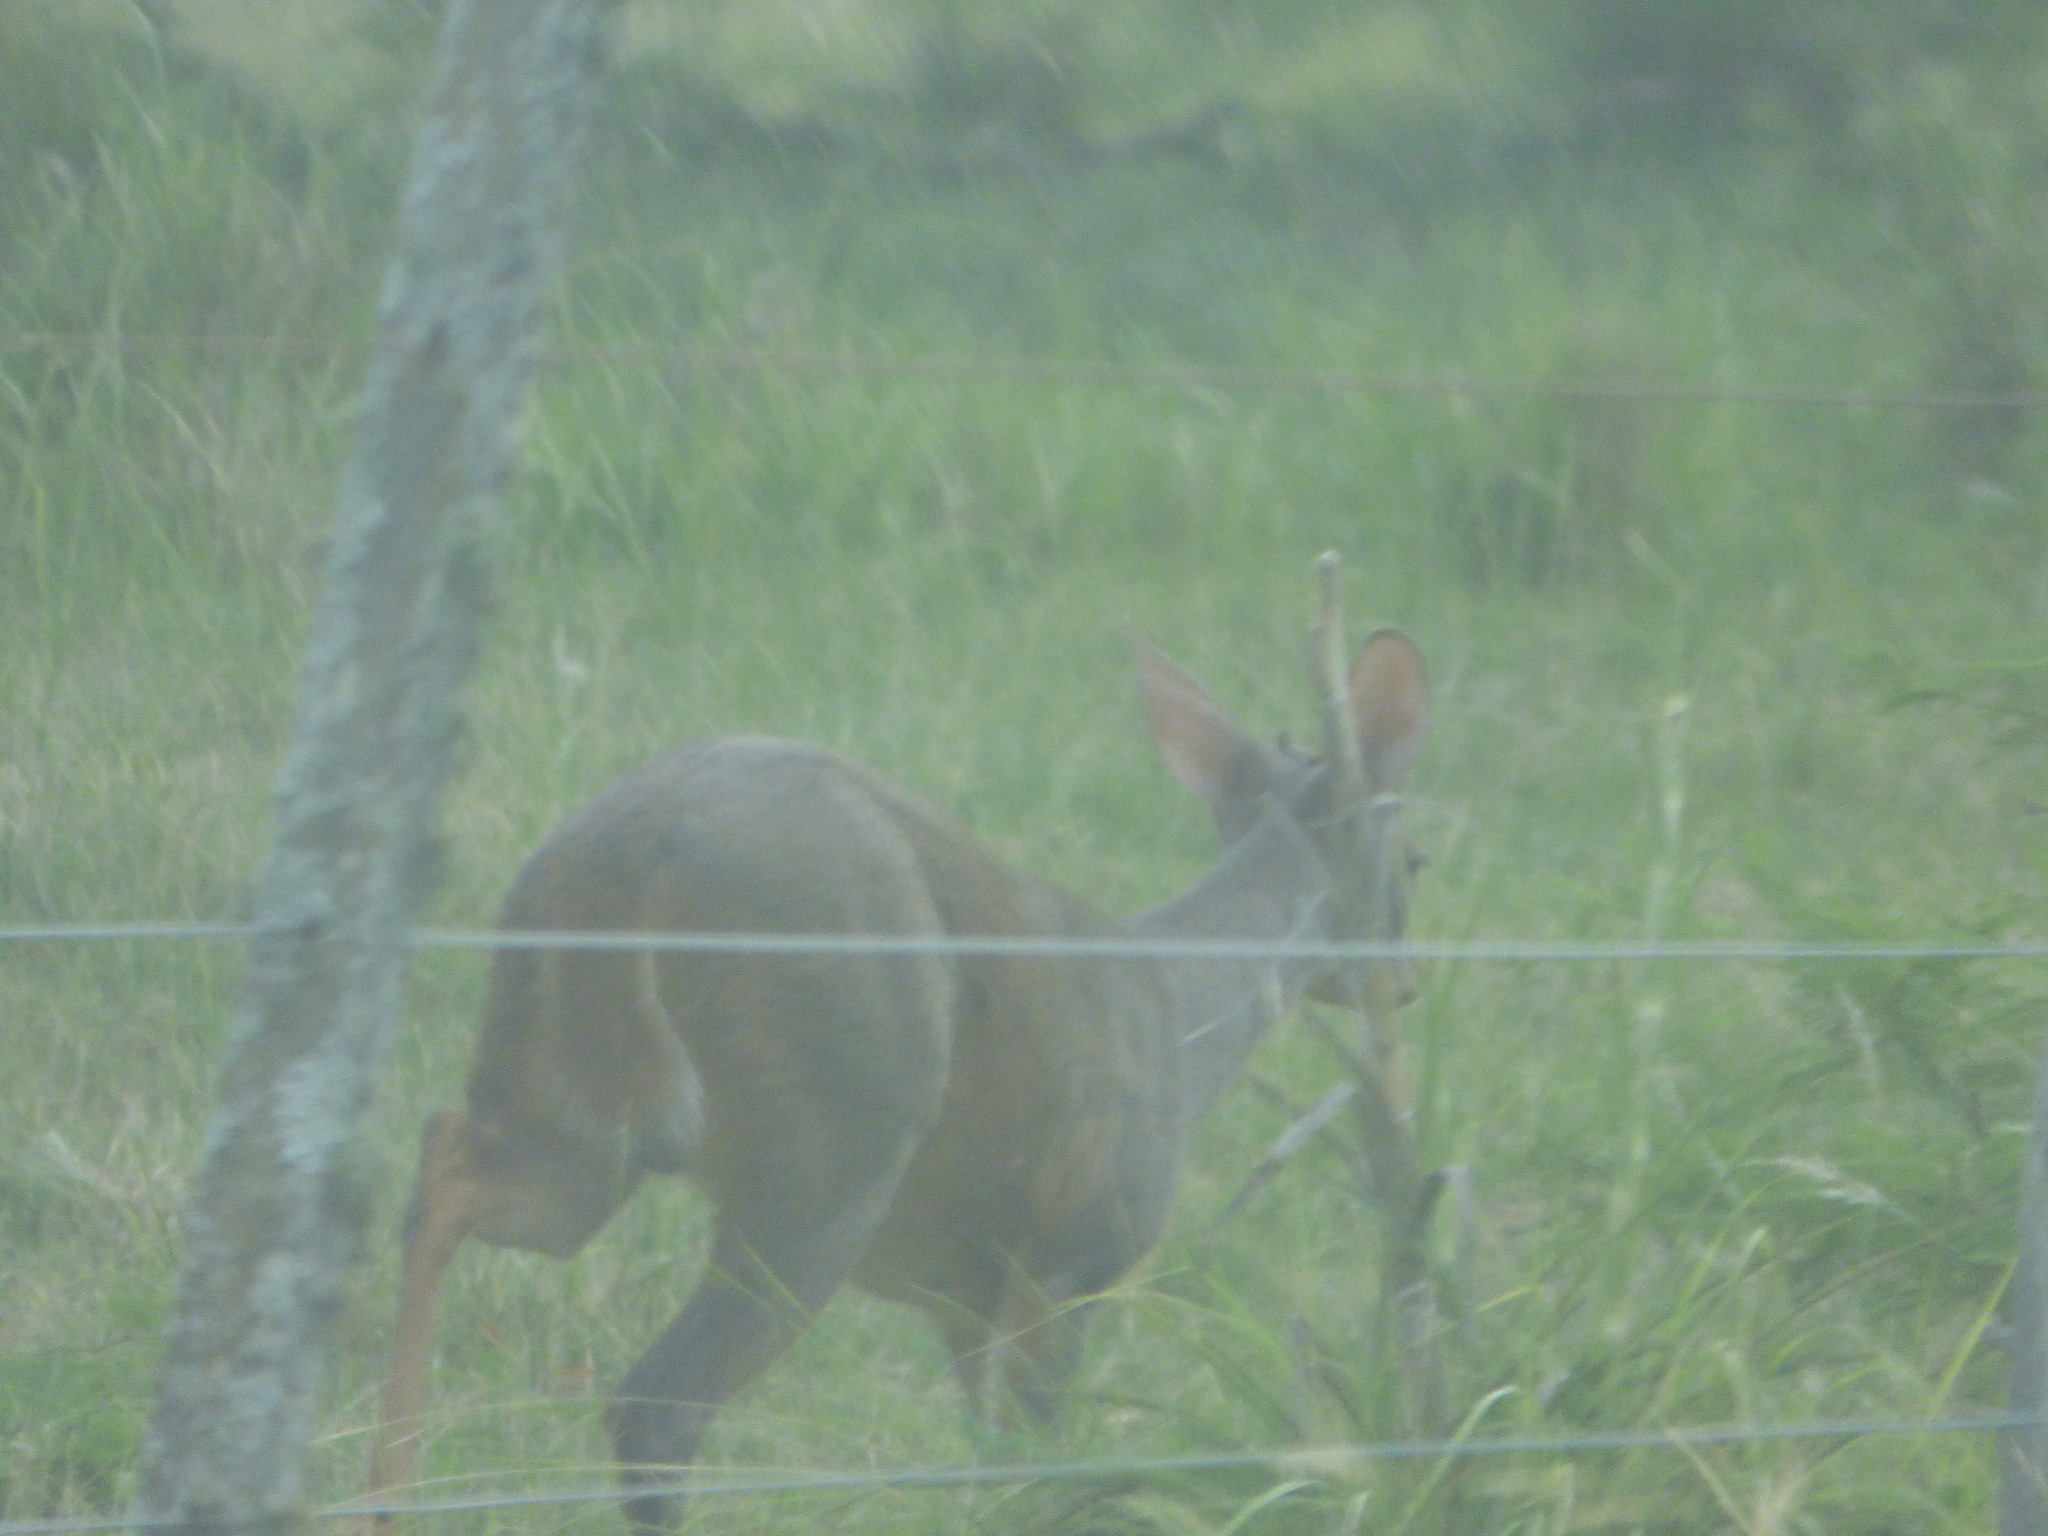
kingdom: Animalia
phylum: Chordata
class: Mammalia
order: Artiodactyla
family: Cervidae
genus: Mazama
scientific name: Mazama gouazoubira
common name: Gray brocket
